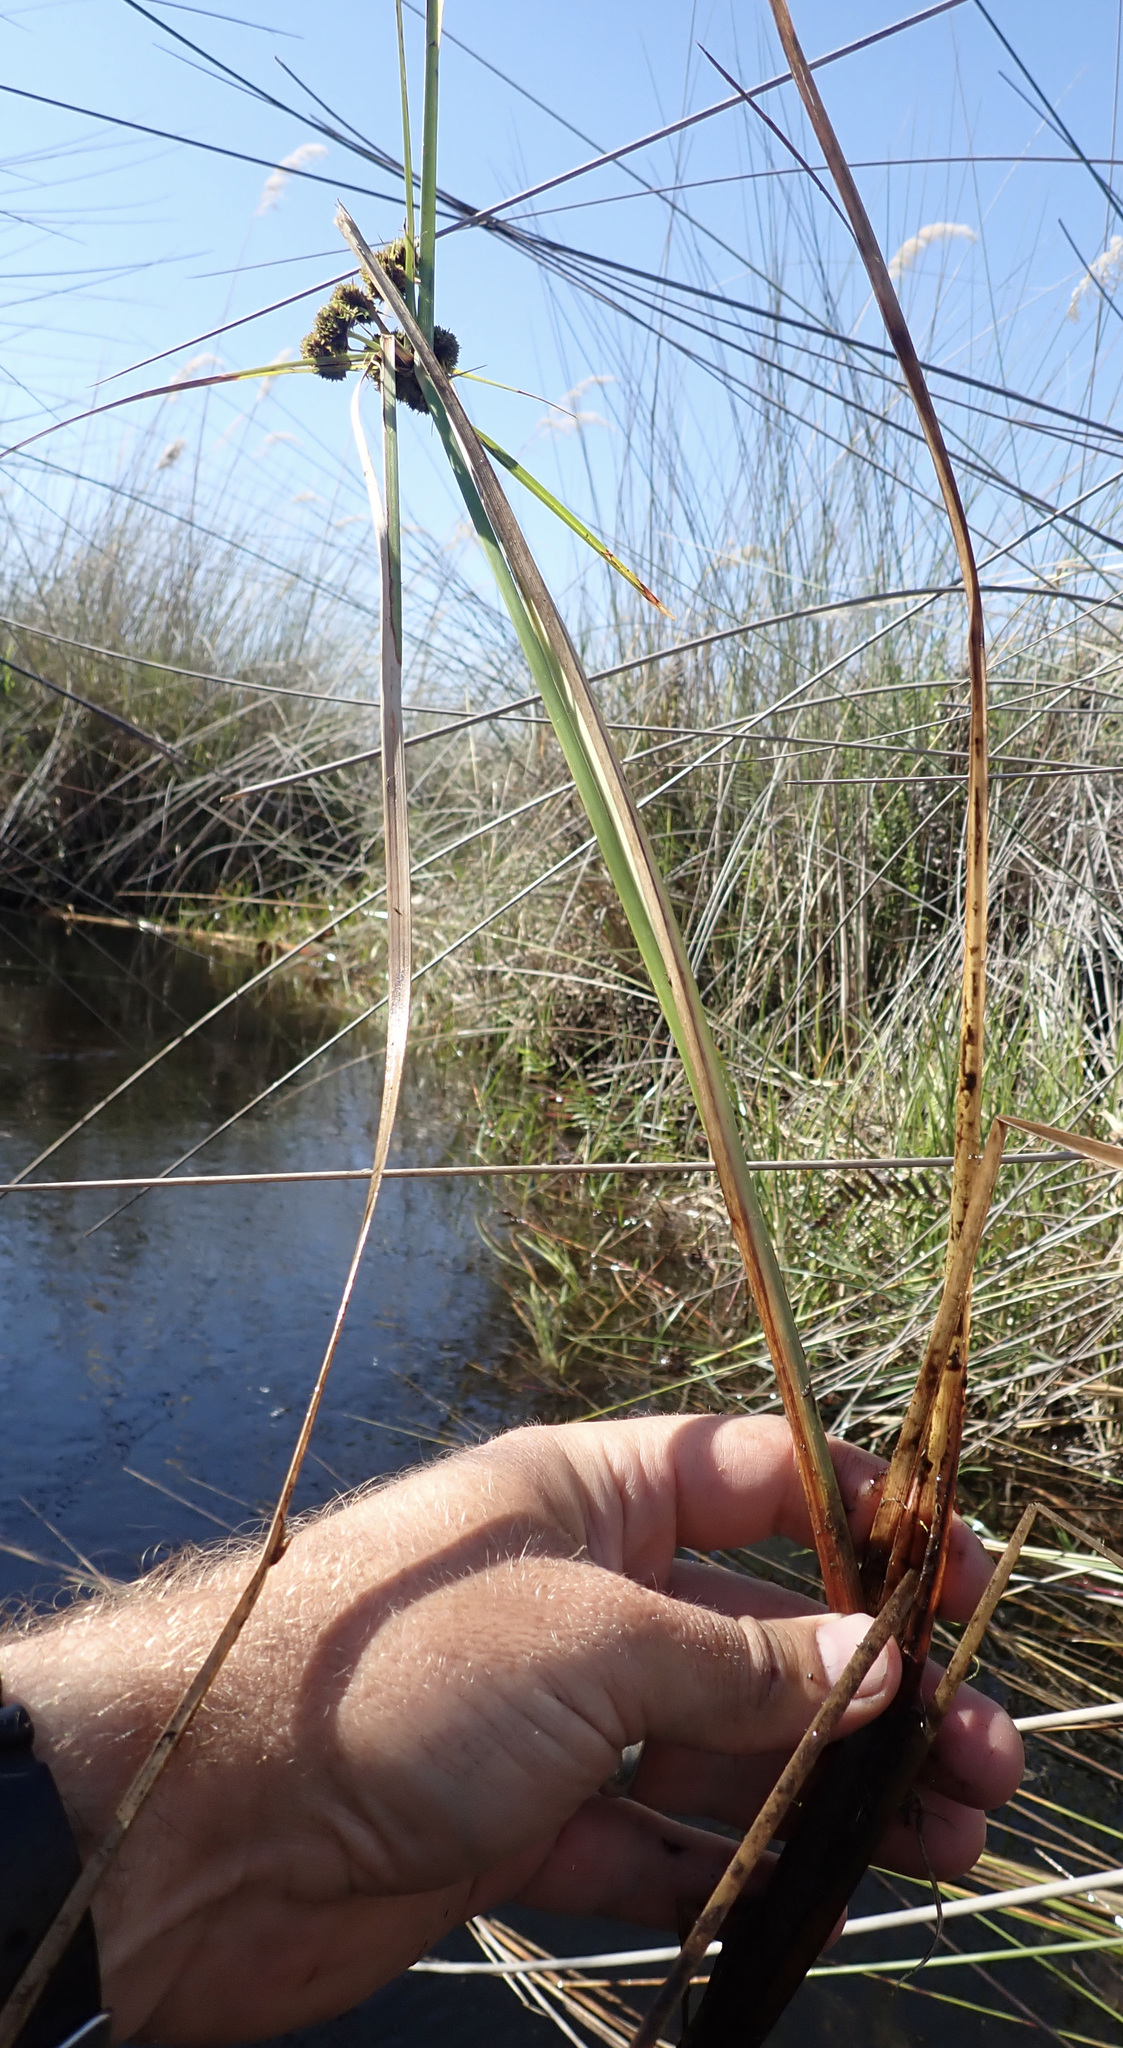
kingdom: Plantae
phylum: Tracheophyta
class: Liliopsida
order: Poales
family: Cyperaceae
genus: Cyperus
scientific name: Cyperus blepharoleptos
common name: Cuban bulrush
